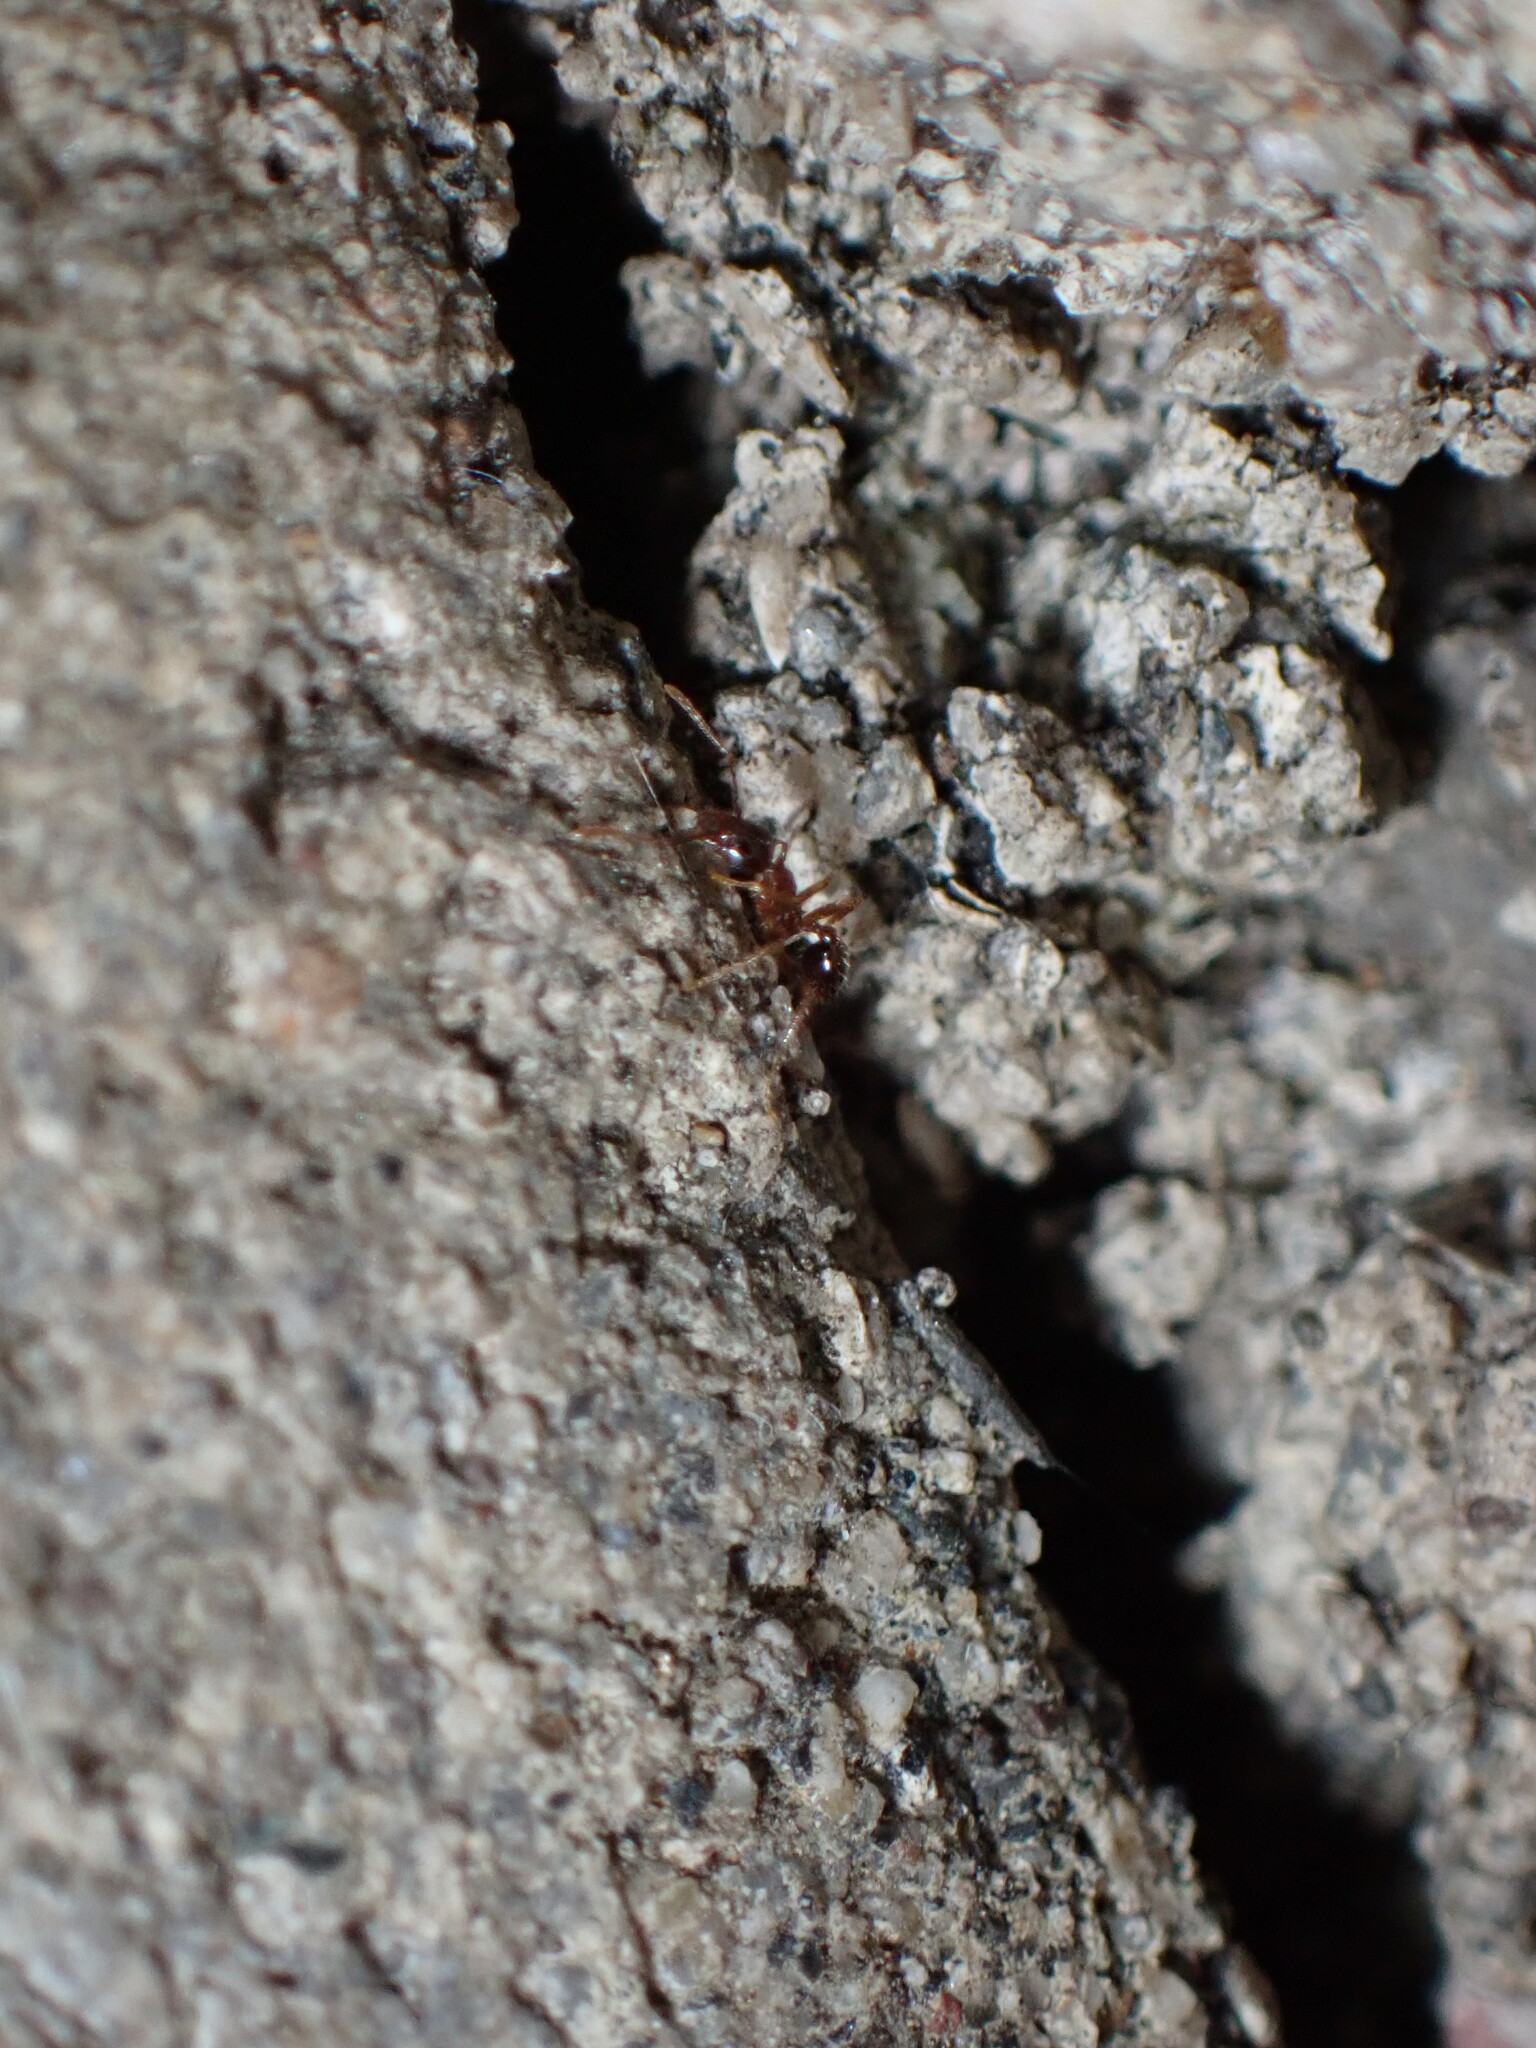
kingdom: Animalia
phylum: Arthropoda
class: Insecta
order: Hymenoptera
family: Formicidae
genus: Pheidole
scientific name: Pheidole noda
